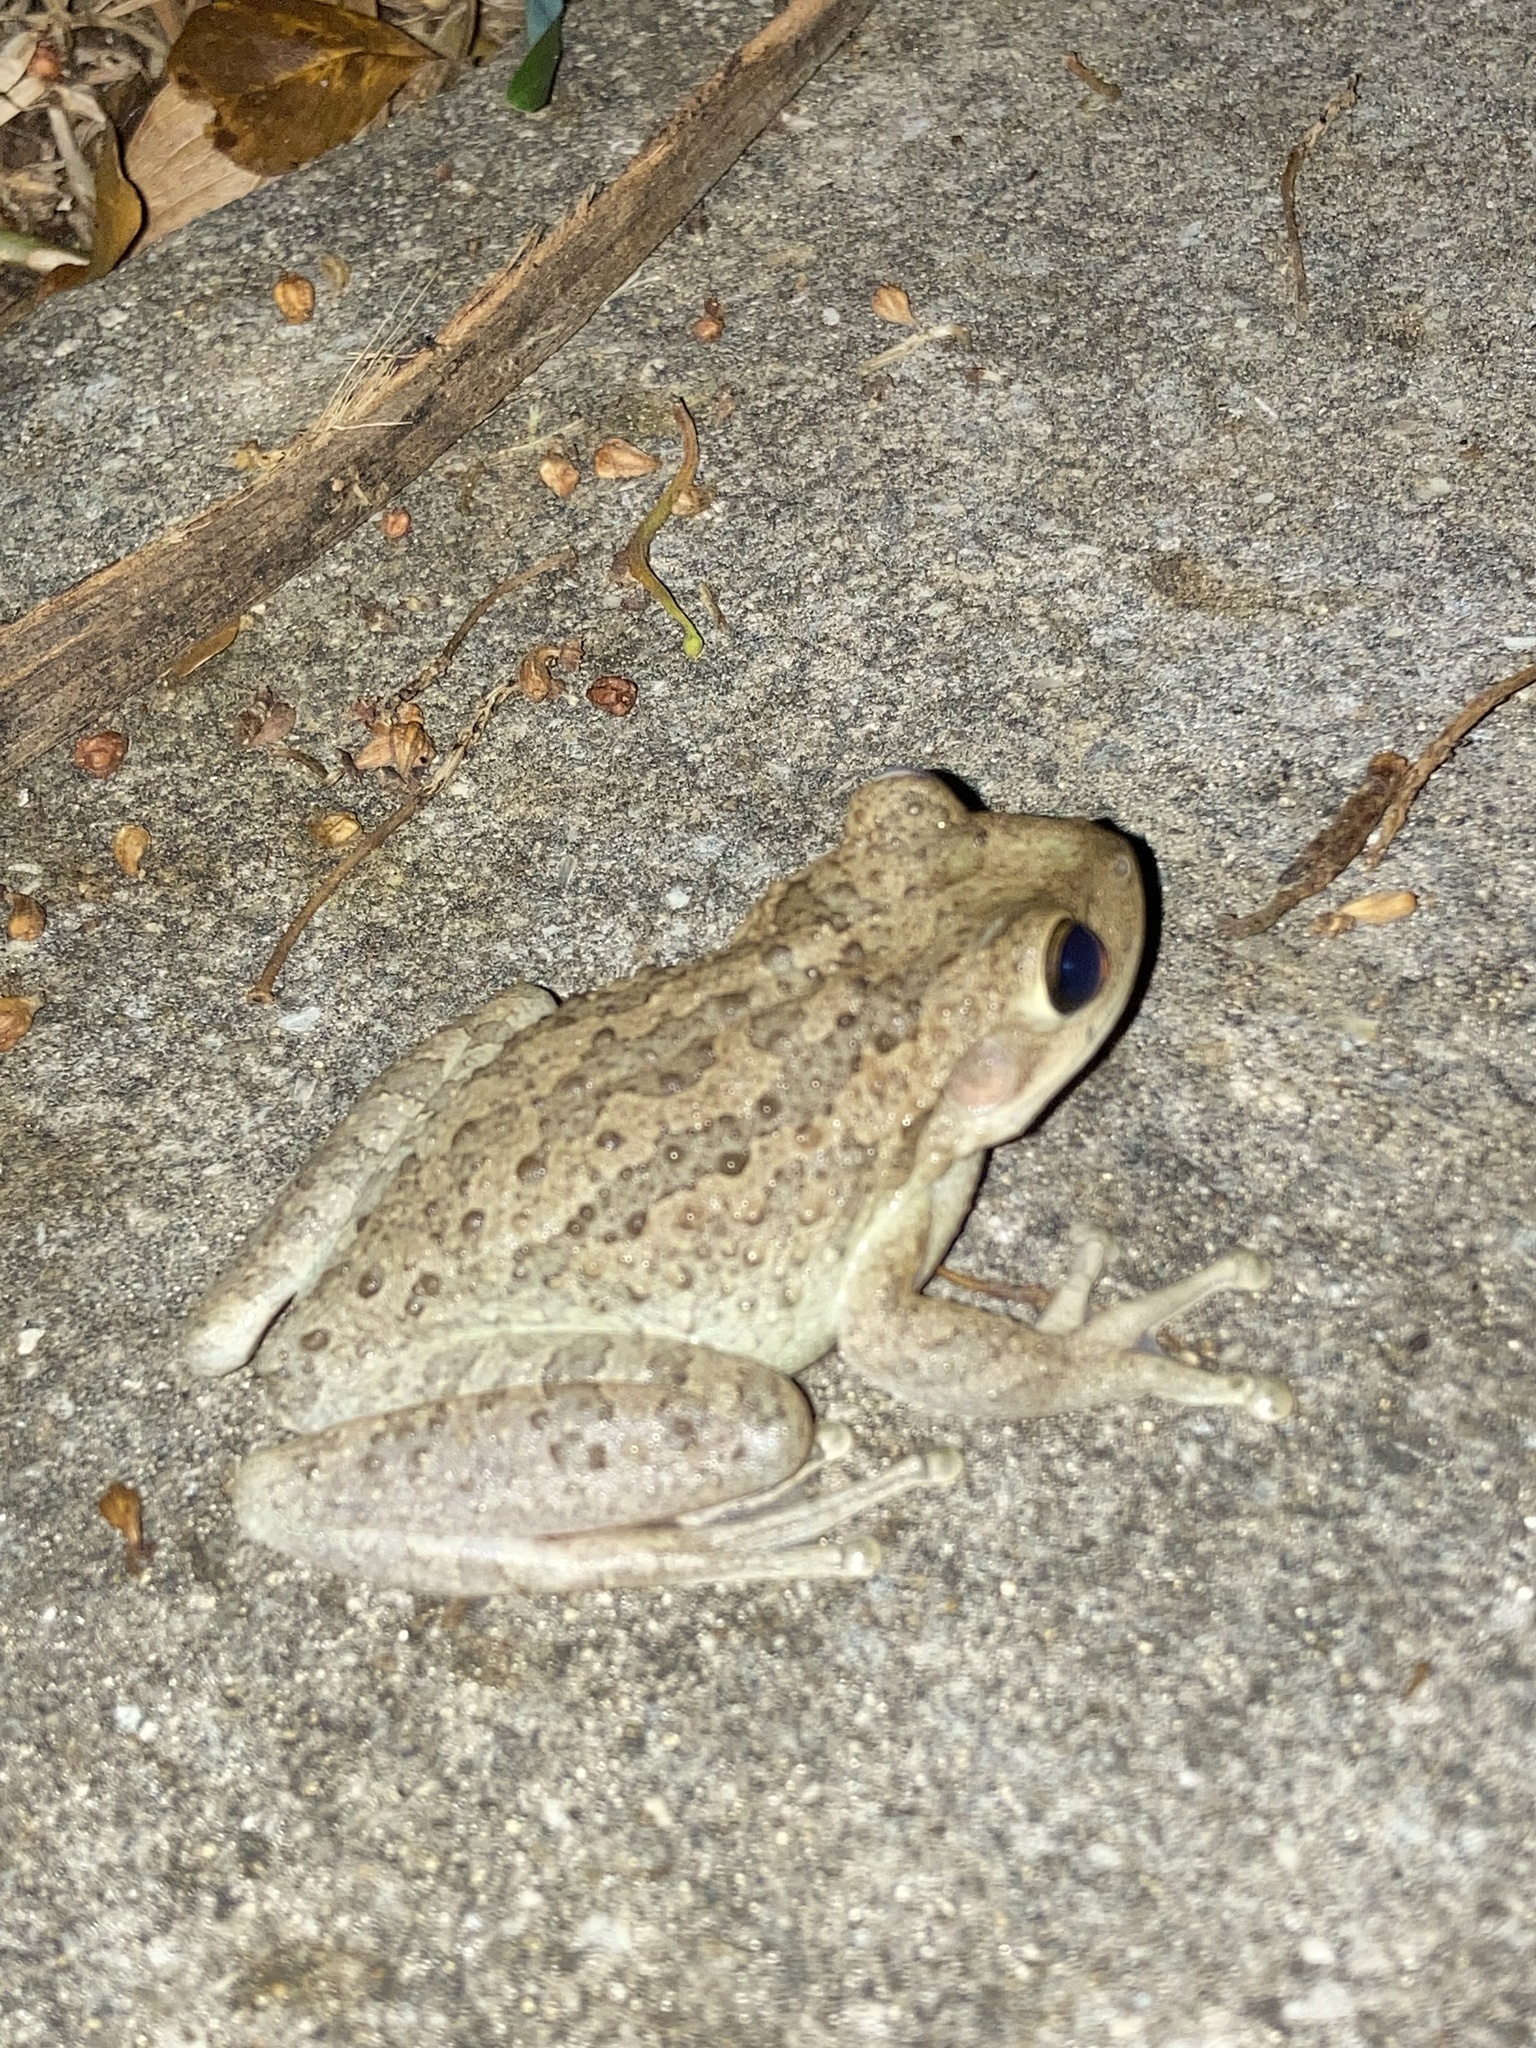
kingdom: Animalia
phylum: Chordata
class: Amphibia
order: Anura
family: Hylidae
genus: Osteopilus
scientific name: Osteopilus septentrionalis
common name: Cuban treefrog
